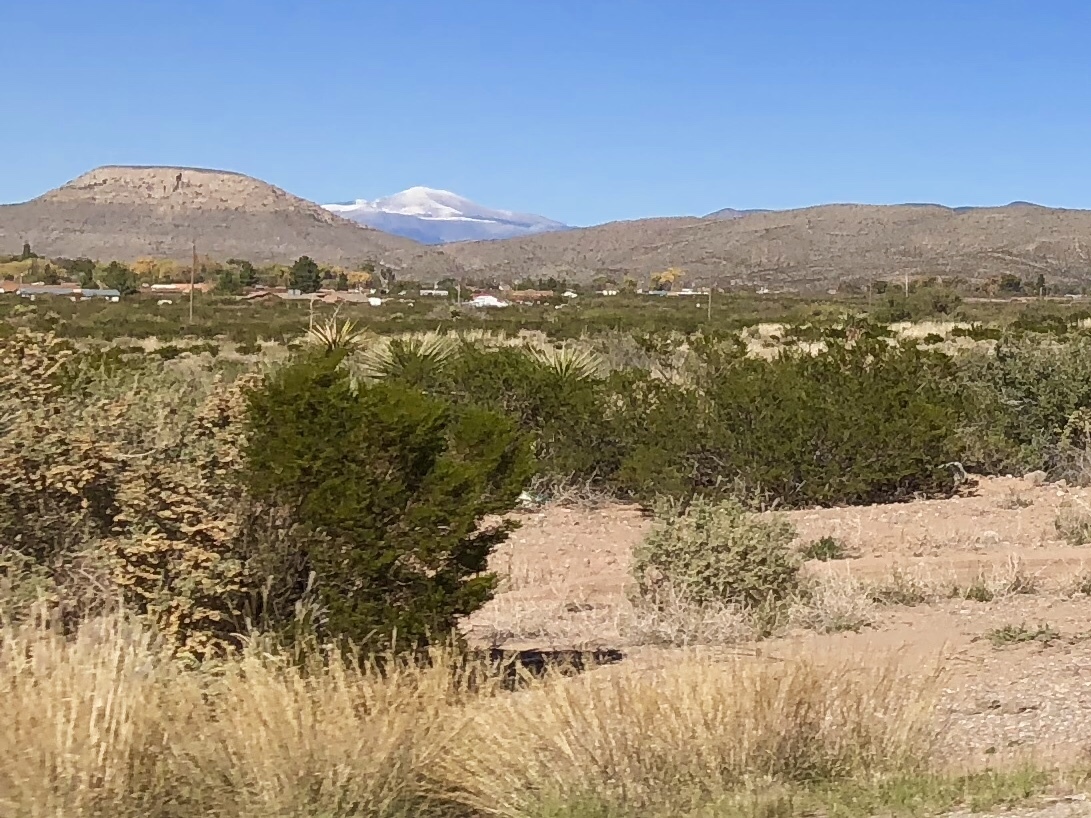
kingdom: Plantae
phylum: Tracheophyta
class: Magnoliopsida
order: Zygophyllales
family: Zygophyllaceae
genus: Larrea
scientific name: Larrea tridentata
